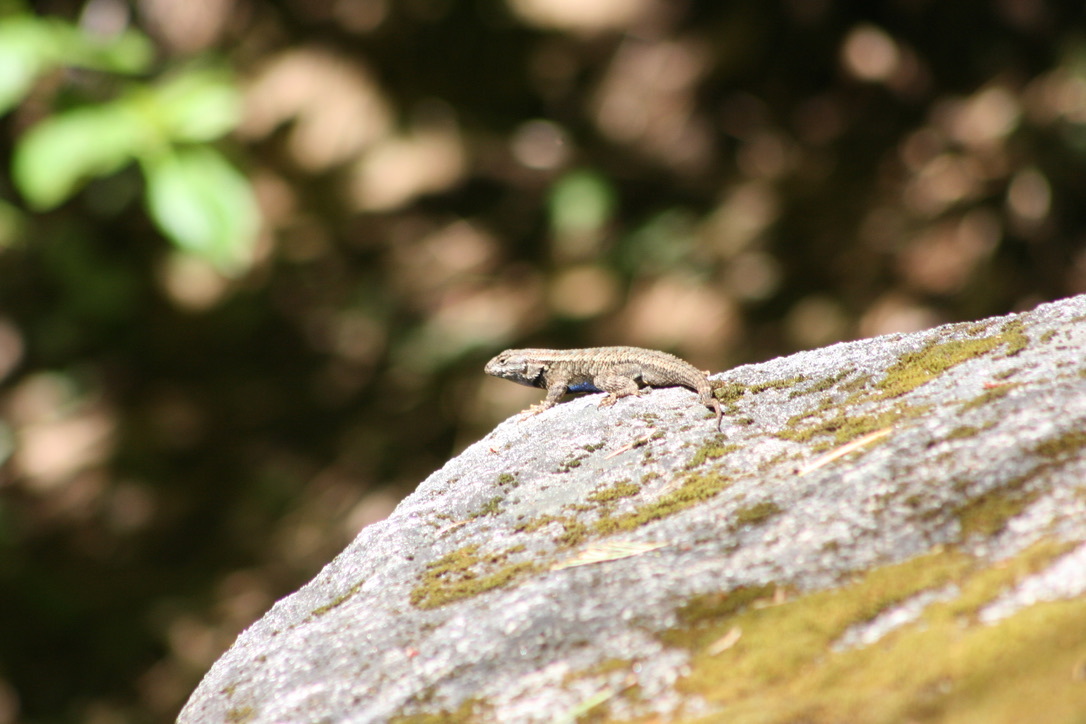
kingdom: Animalia
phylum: Chordata
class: Squamata
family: Phrynosomatidae
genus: Sceloporus
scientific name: Sceloporus occidentalis
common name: Western fence lizard
